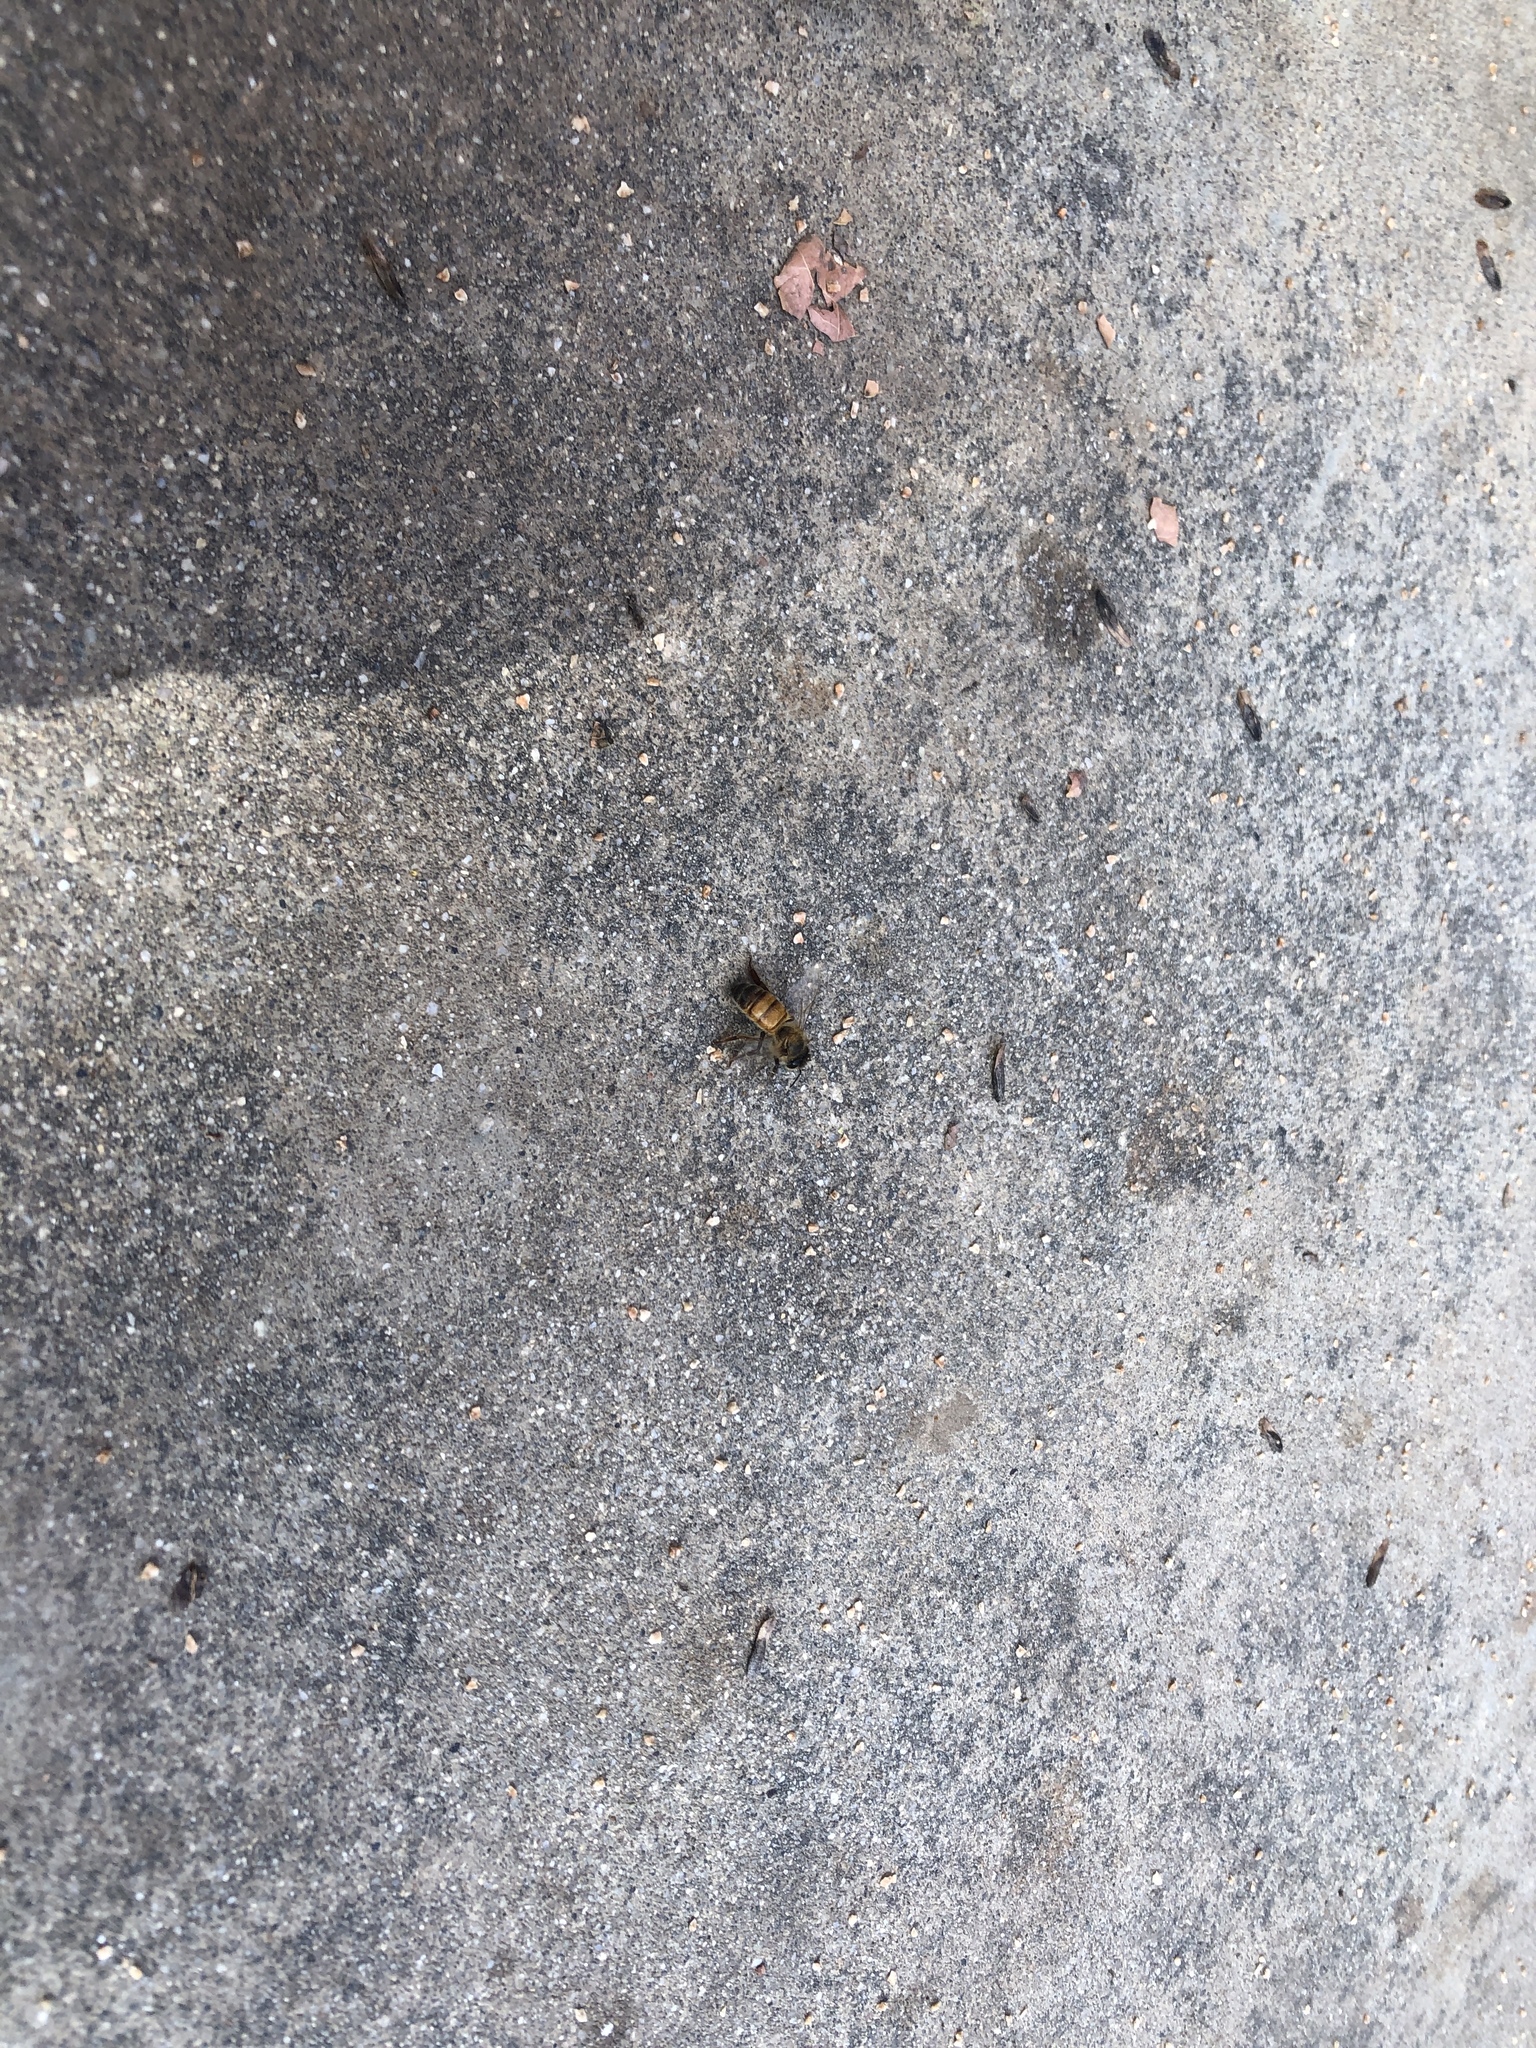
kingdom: Animalia
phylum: Arthropoda
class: Insecta
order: Hymenoptera
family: Apidae
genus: Apis
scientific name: Apis mellifera
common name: Honey bee
